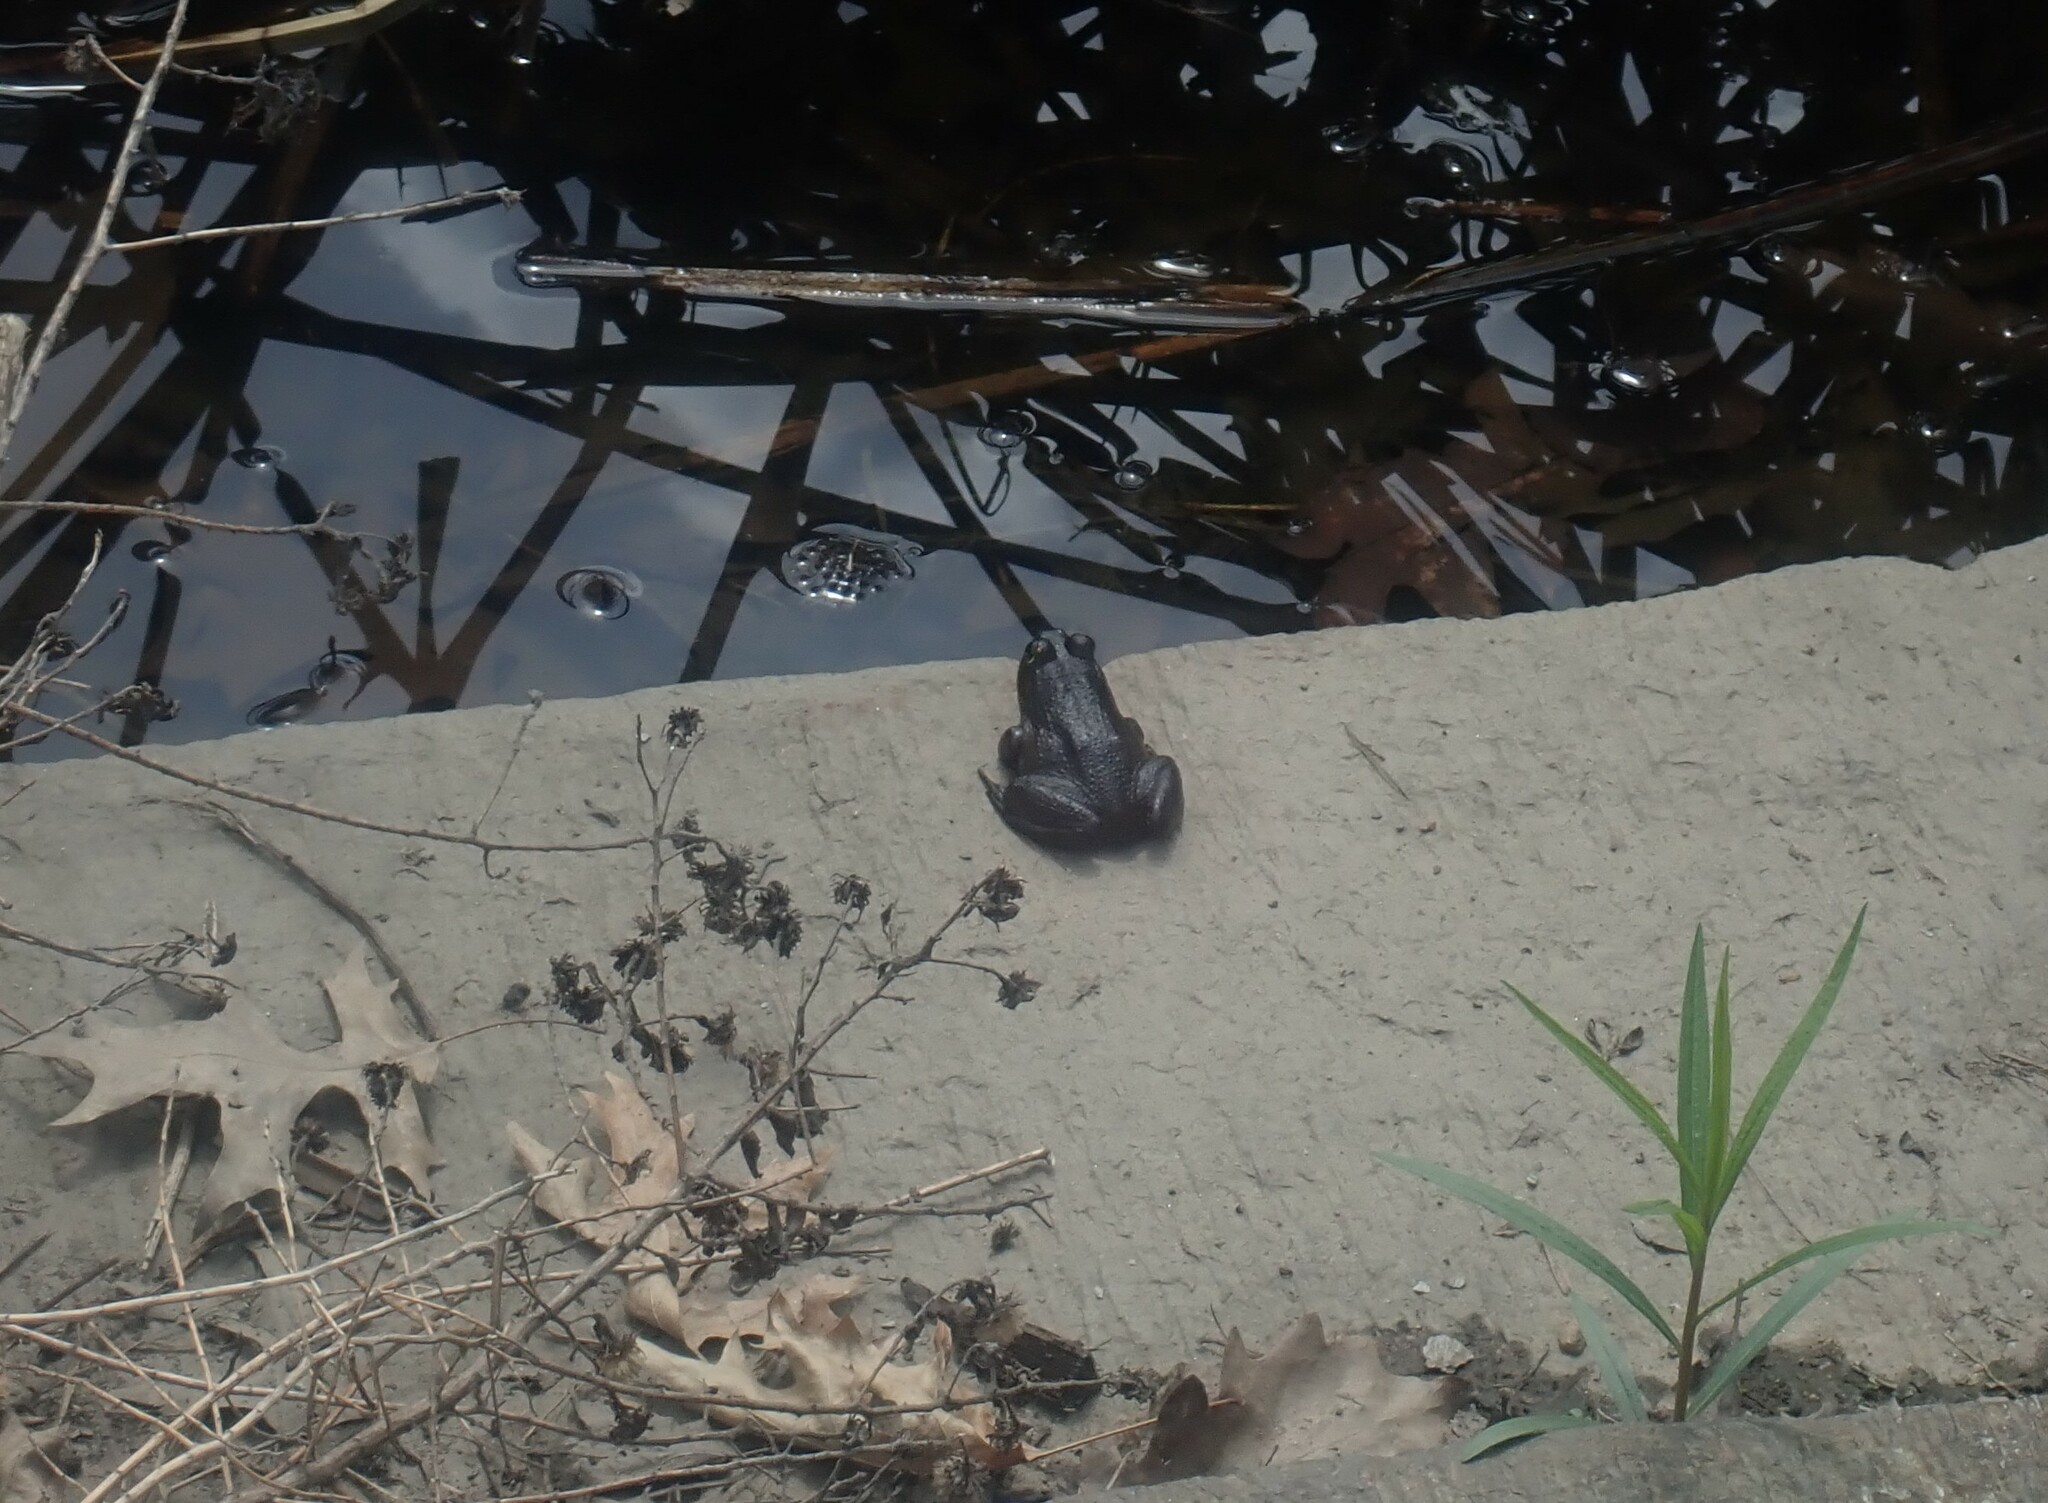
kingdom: Animalia
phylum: Chordata
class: Amphibia
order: Anura
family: Ranidae
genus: Lithobates
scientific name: Lithobates catesbeianus
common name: American bullfrog
